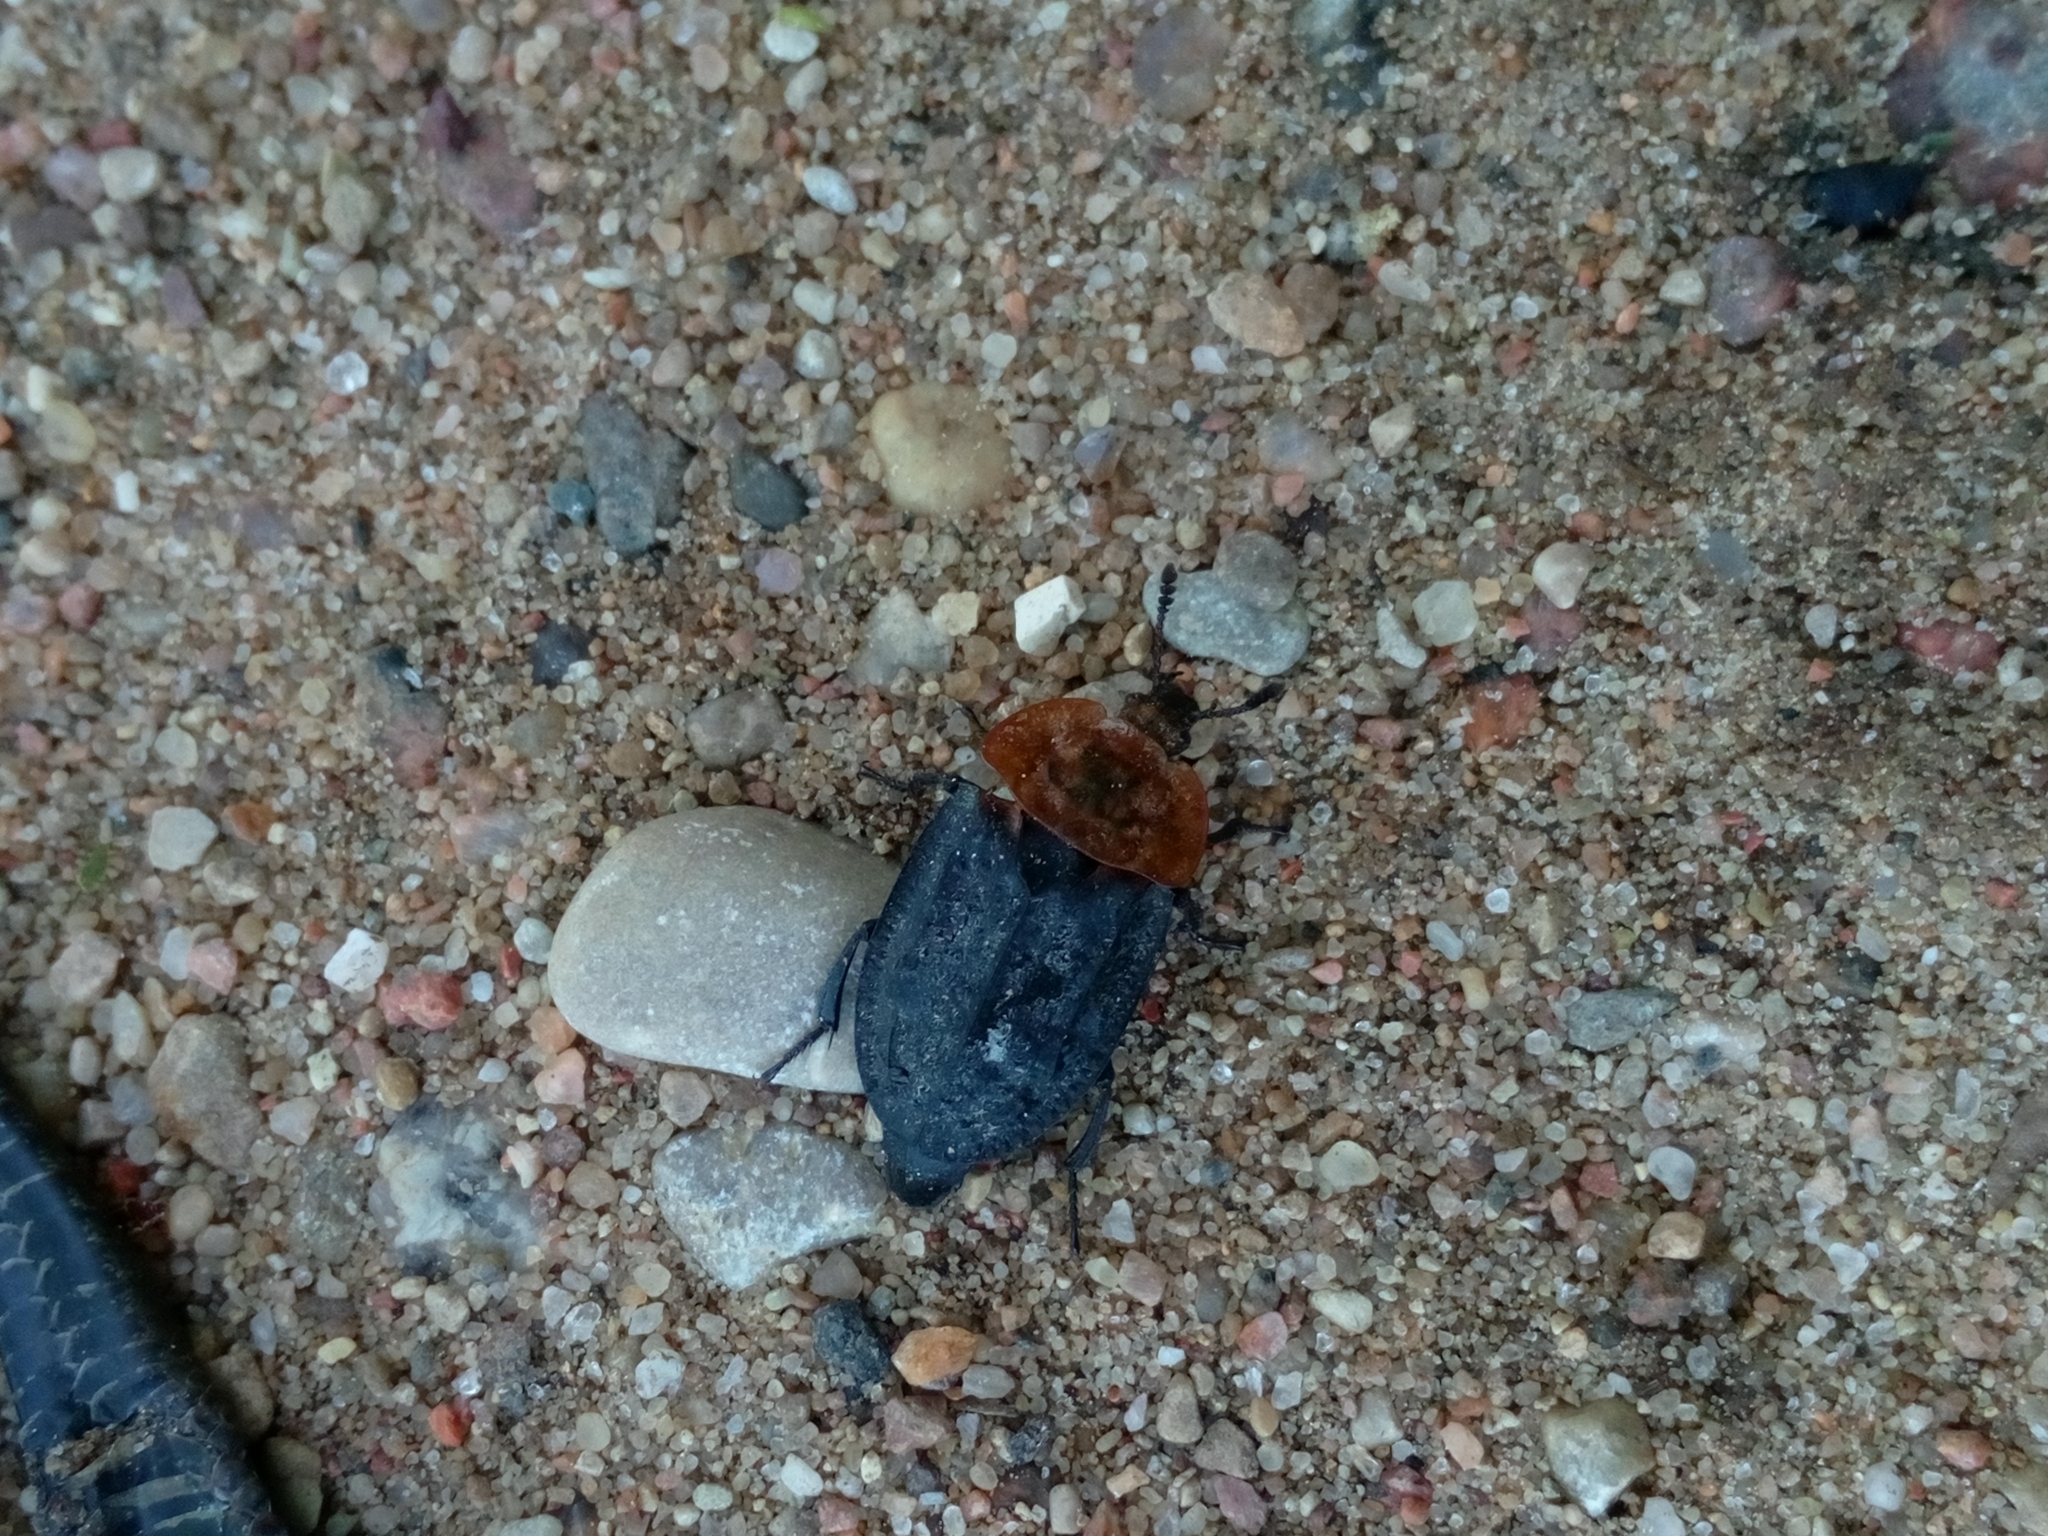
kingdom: Animalia
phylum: Arthropoda
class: Insecta
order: Coleoptera
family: Staphylinidae
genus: Oiceoptoma
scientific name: Oiceoptoma thoracicum
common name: Red-breasted carrion beetle
